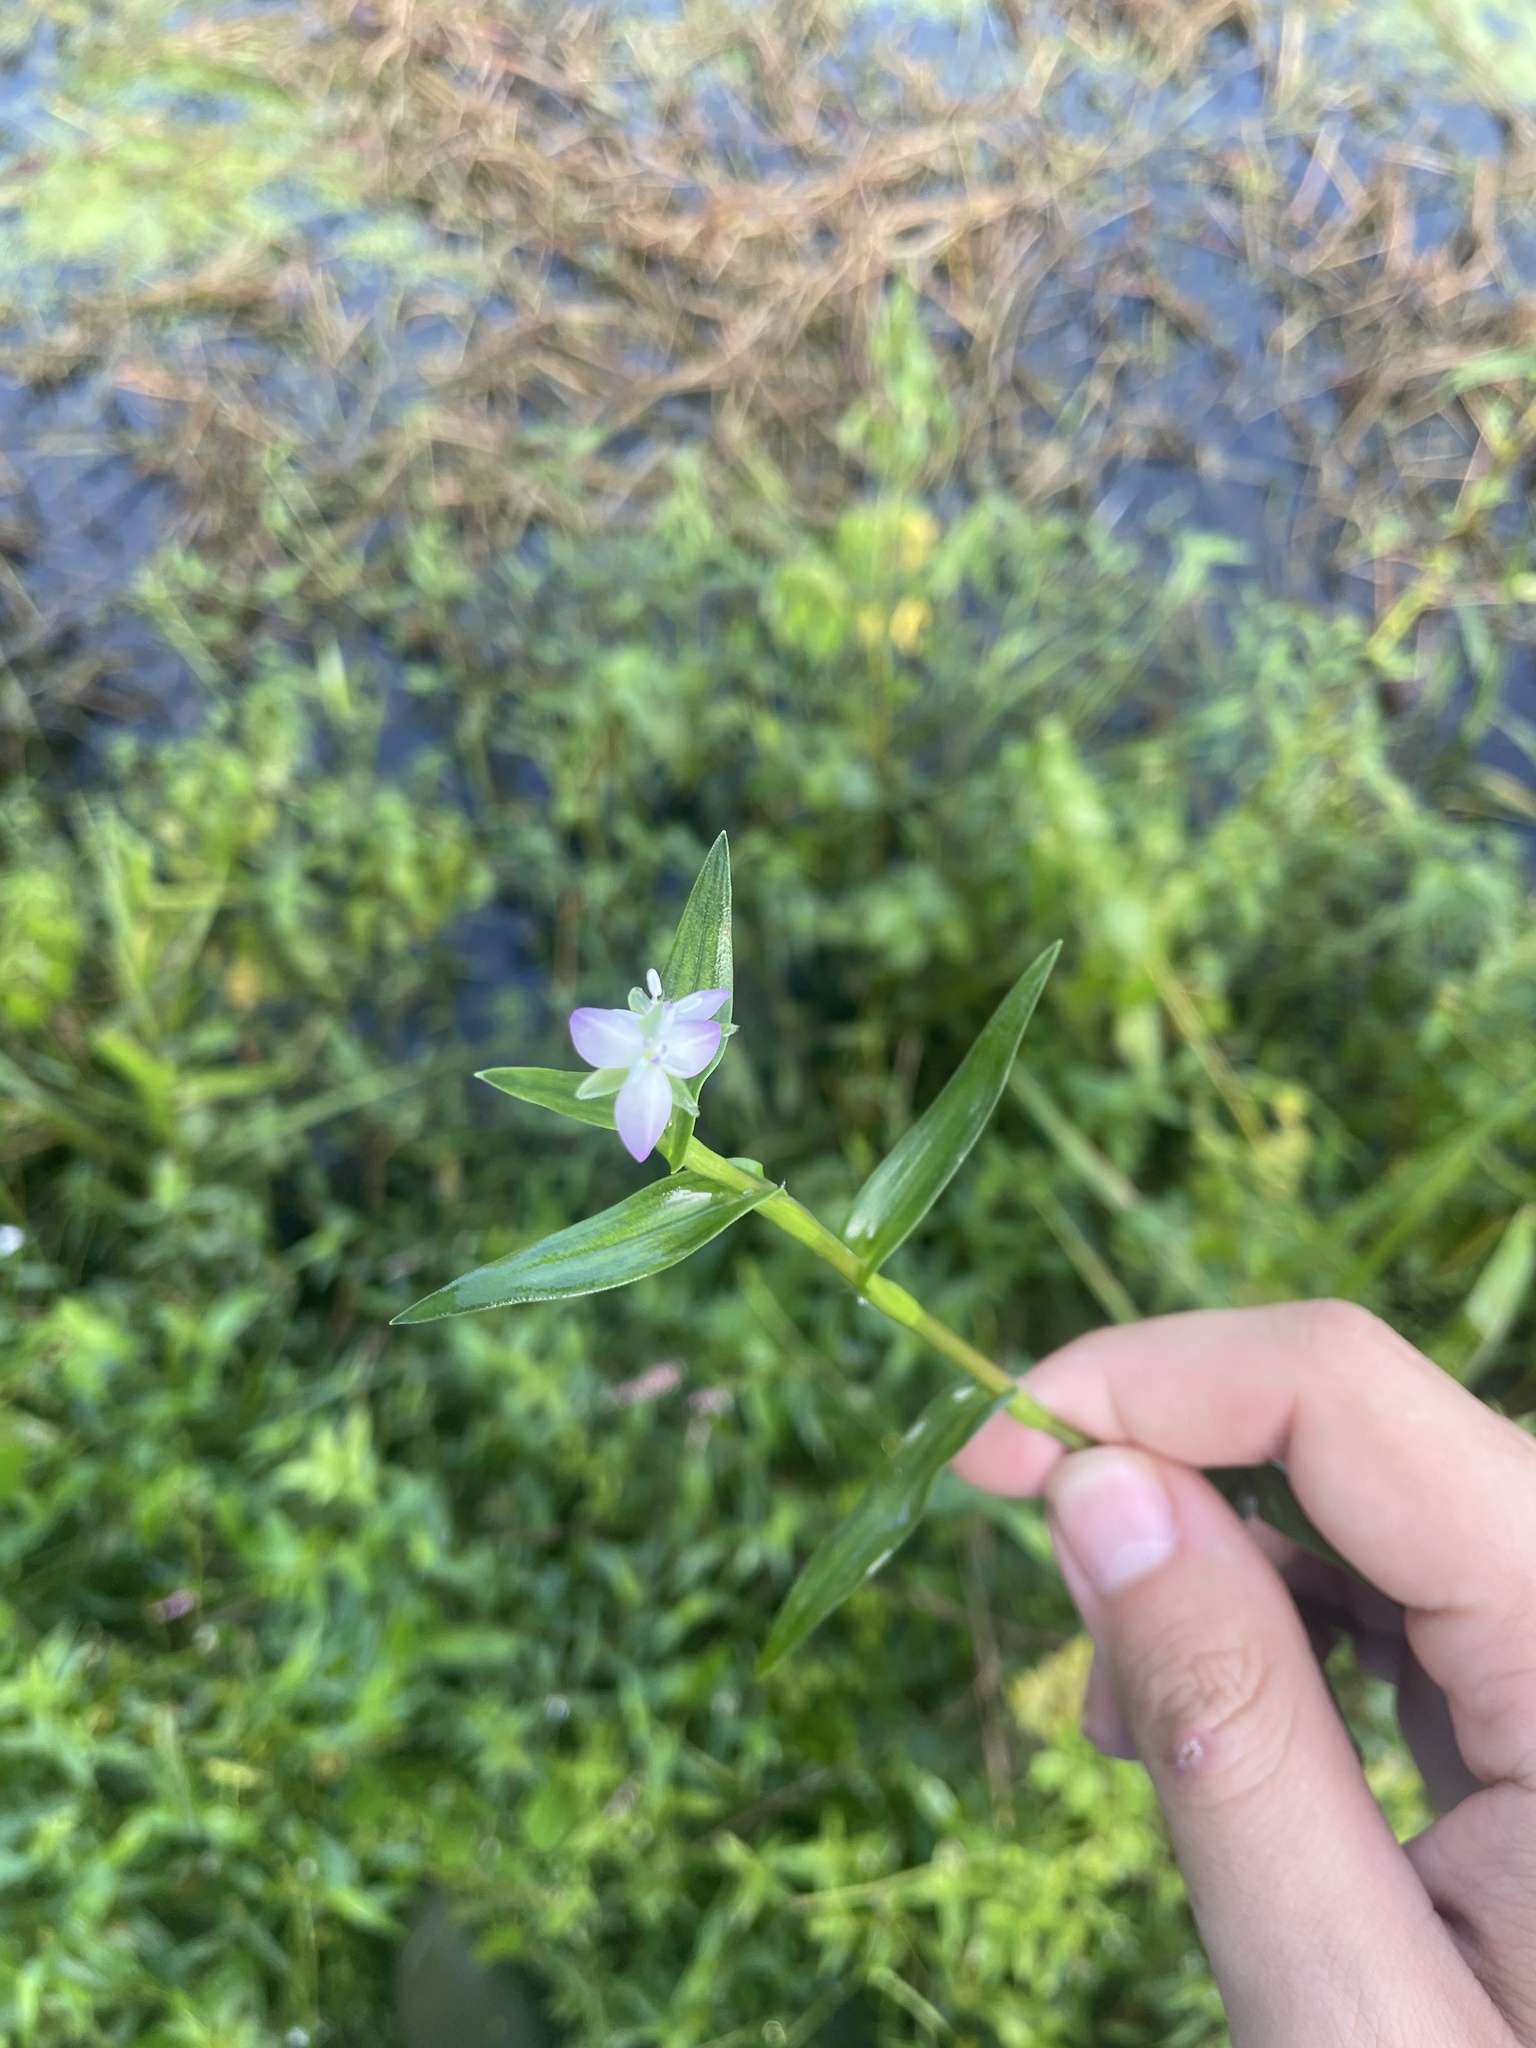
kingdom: Plantae
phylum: Tracheophyta
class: Liliopsida
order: Commelinales
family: Commelinaceae
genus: Murdannia
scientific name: Murdannia keisak
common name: Wartremoving herb
